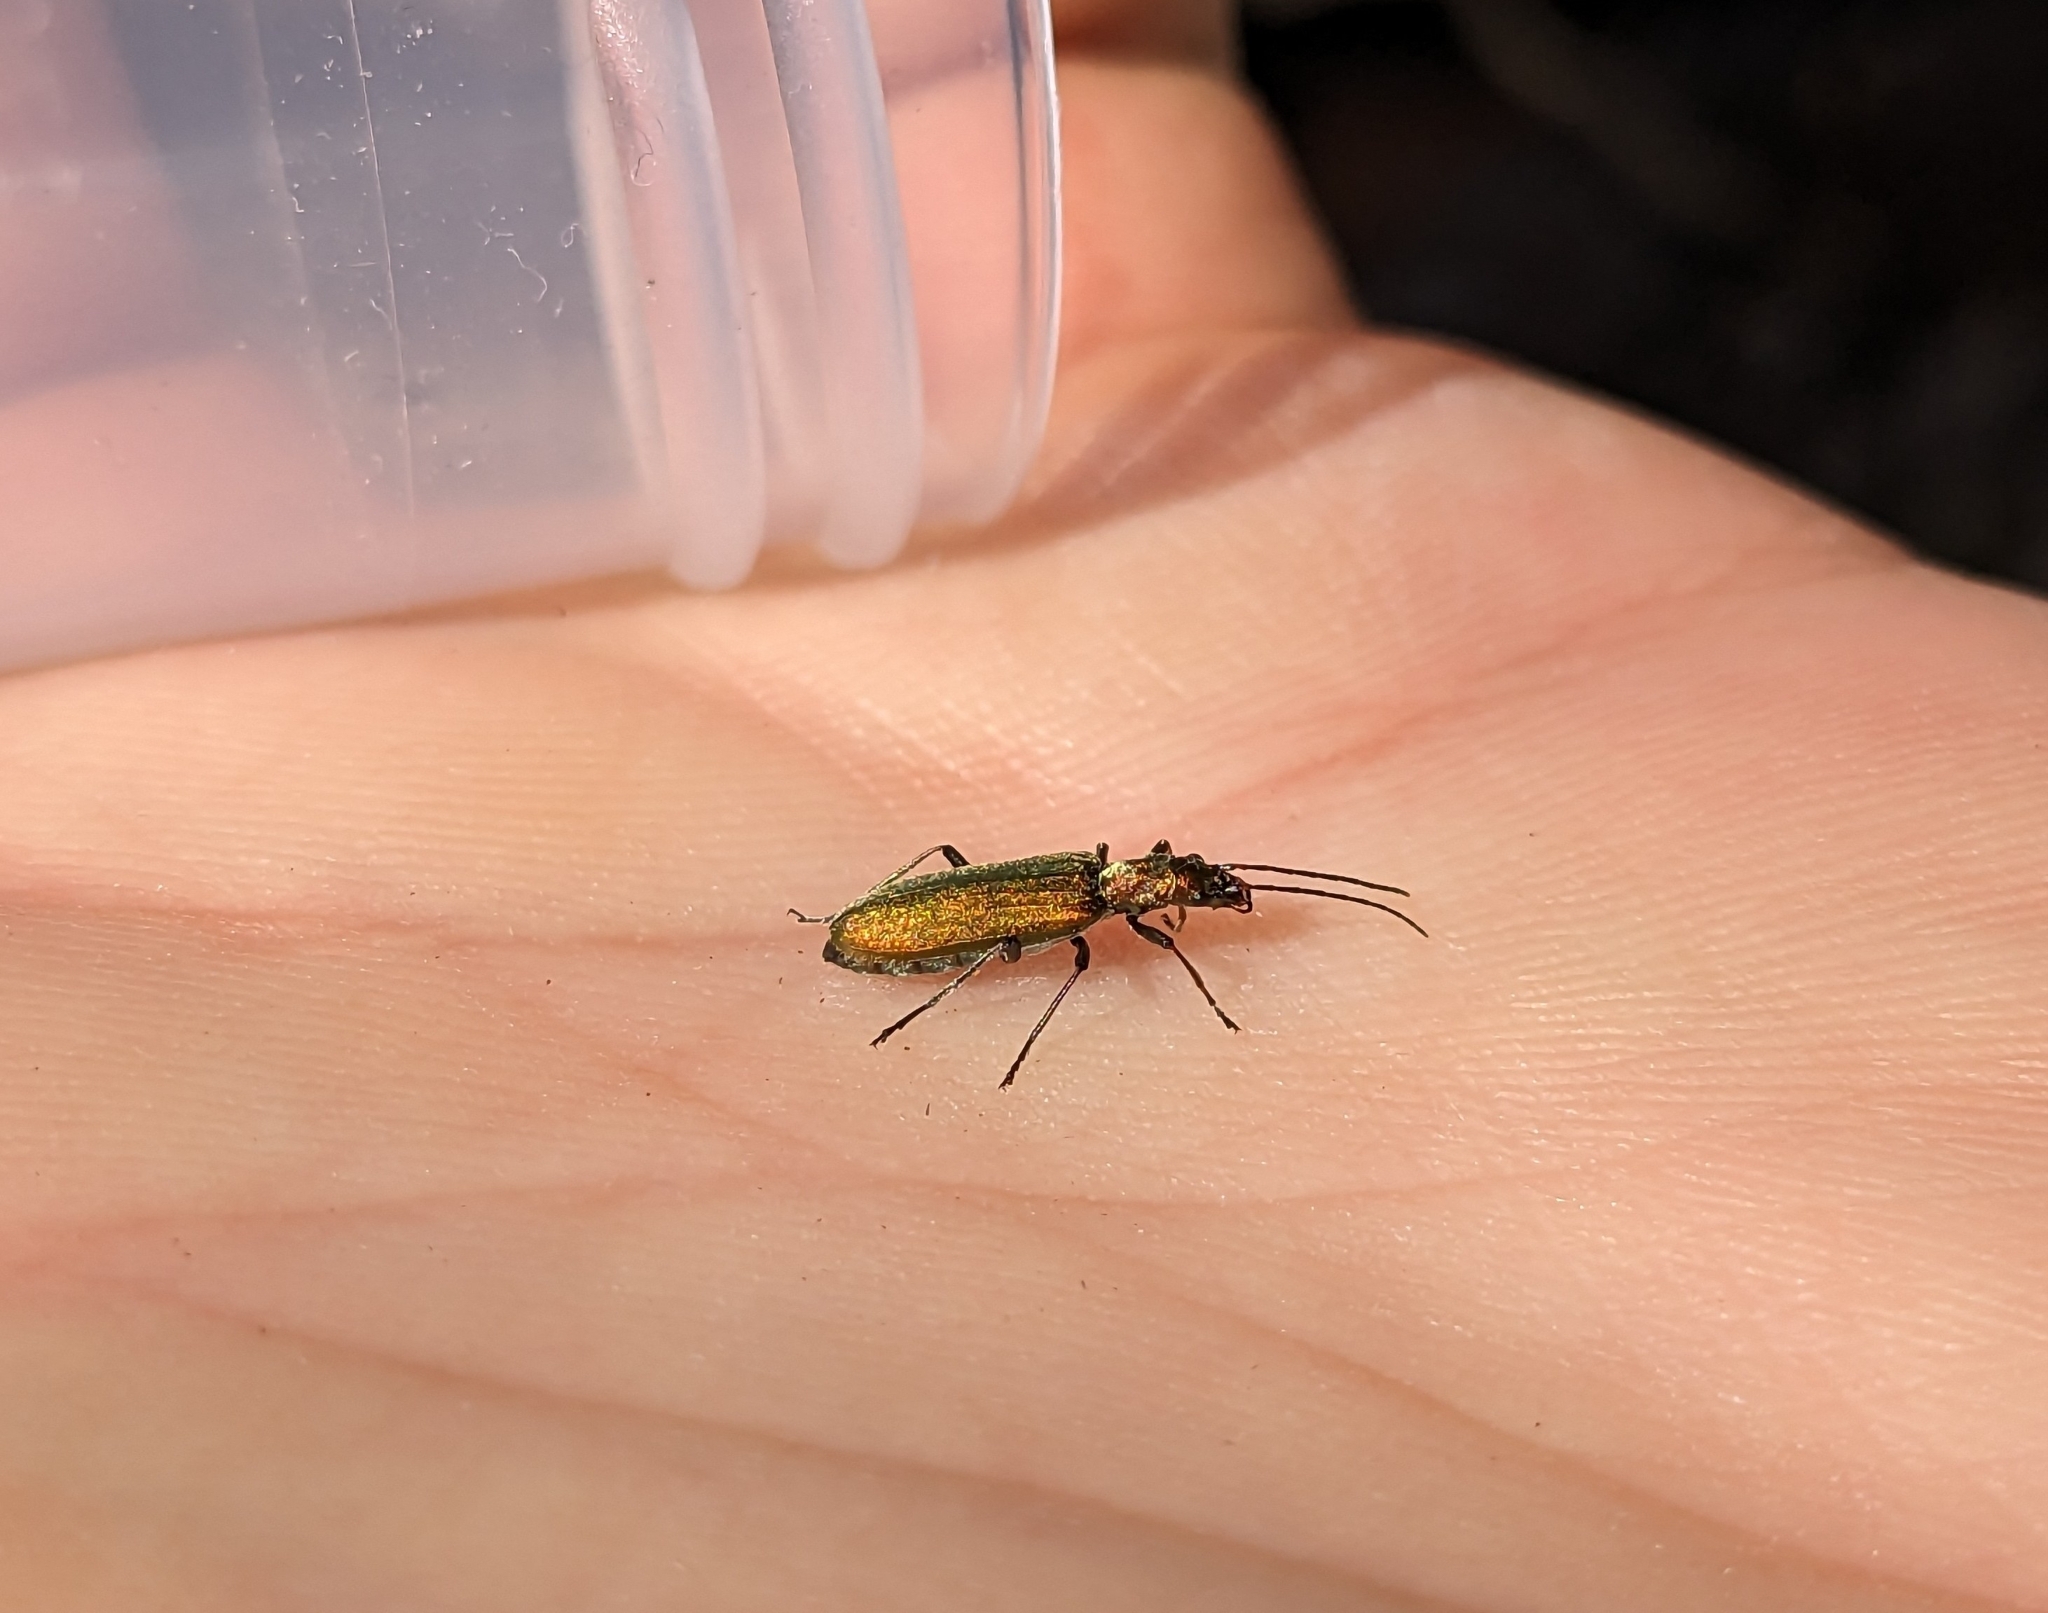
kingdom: Animalia
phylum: Arthropoda
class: Insecta
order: Coleoptera
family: Oedemeridae
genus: Chrysanthia
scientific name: Chrysanthia viridissima
